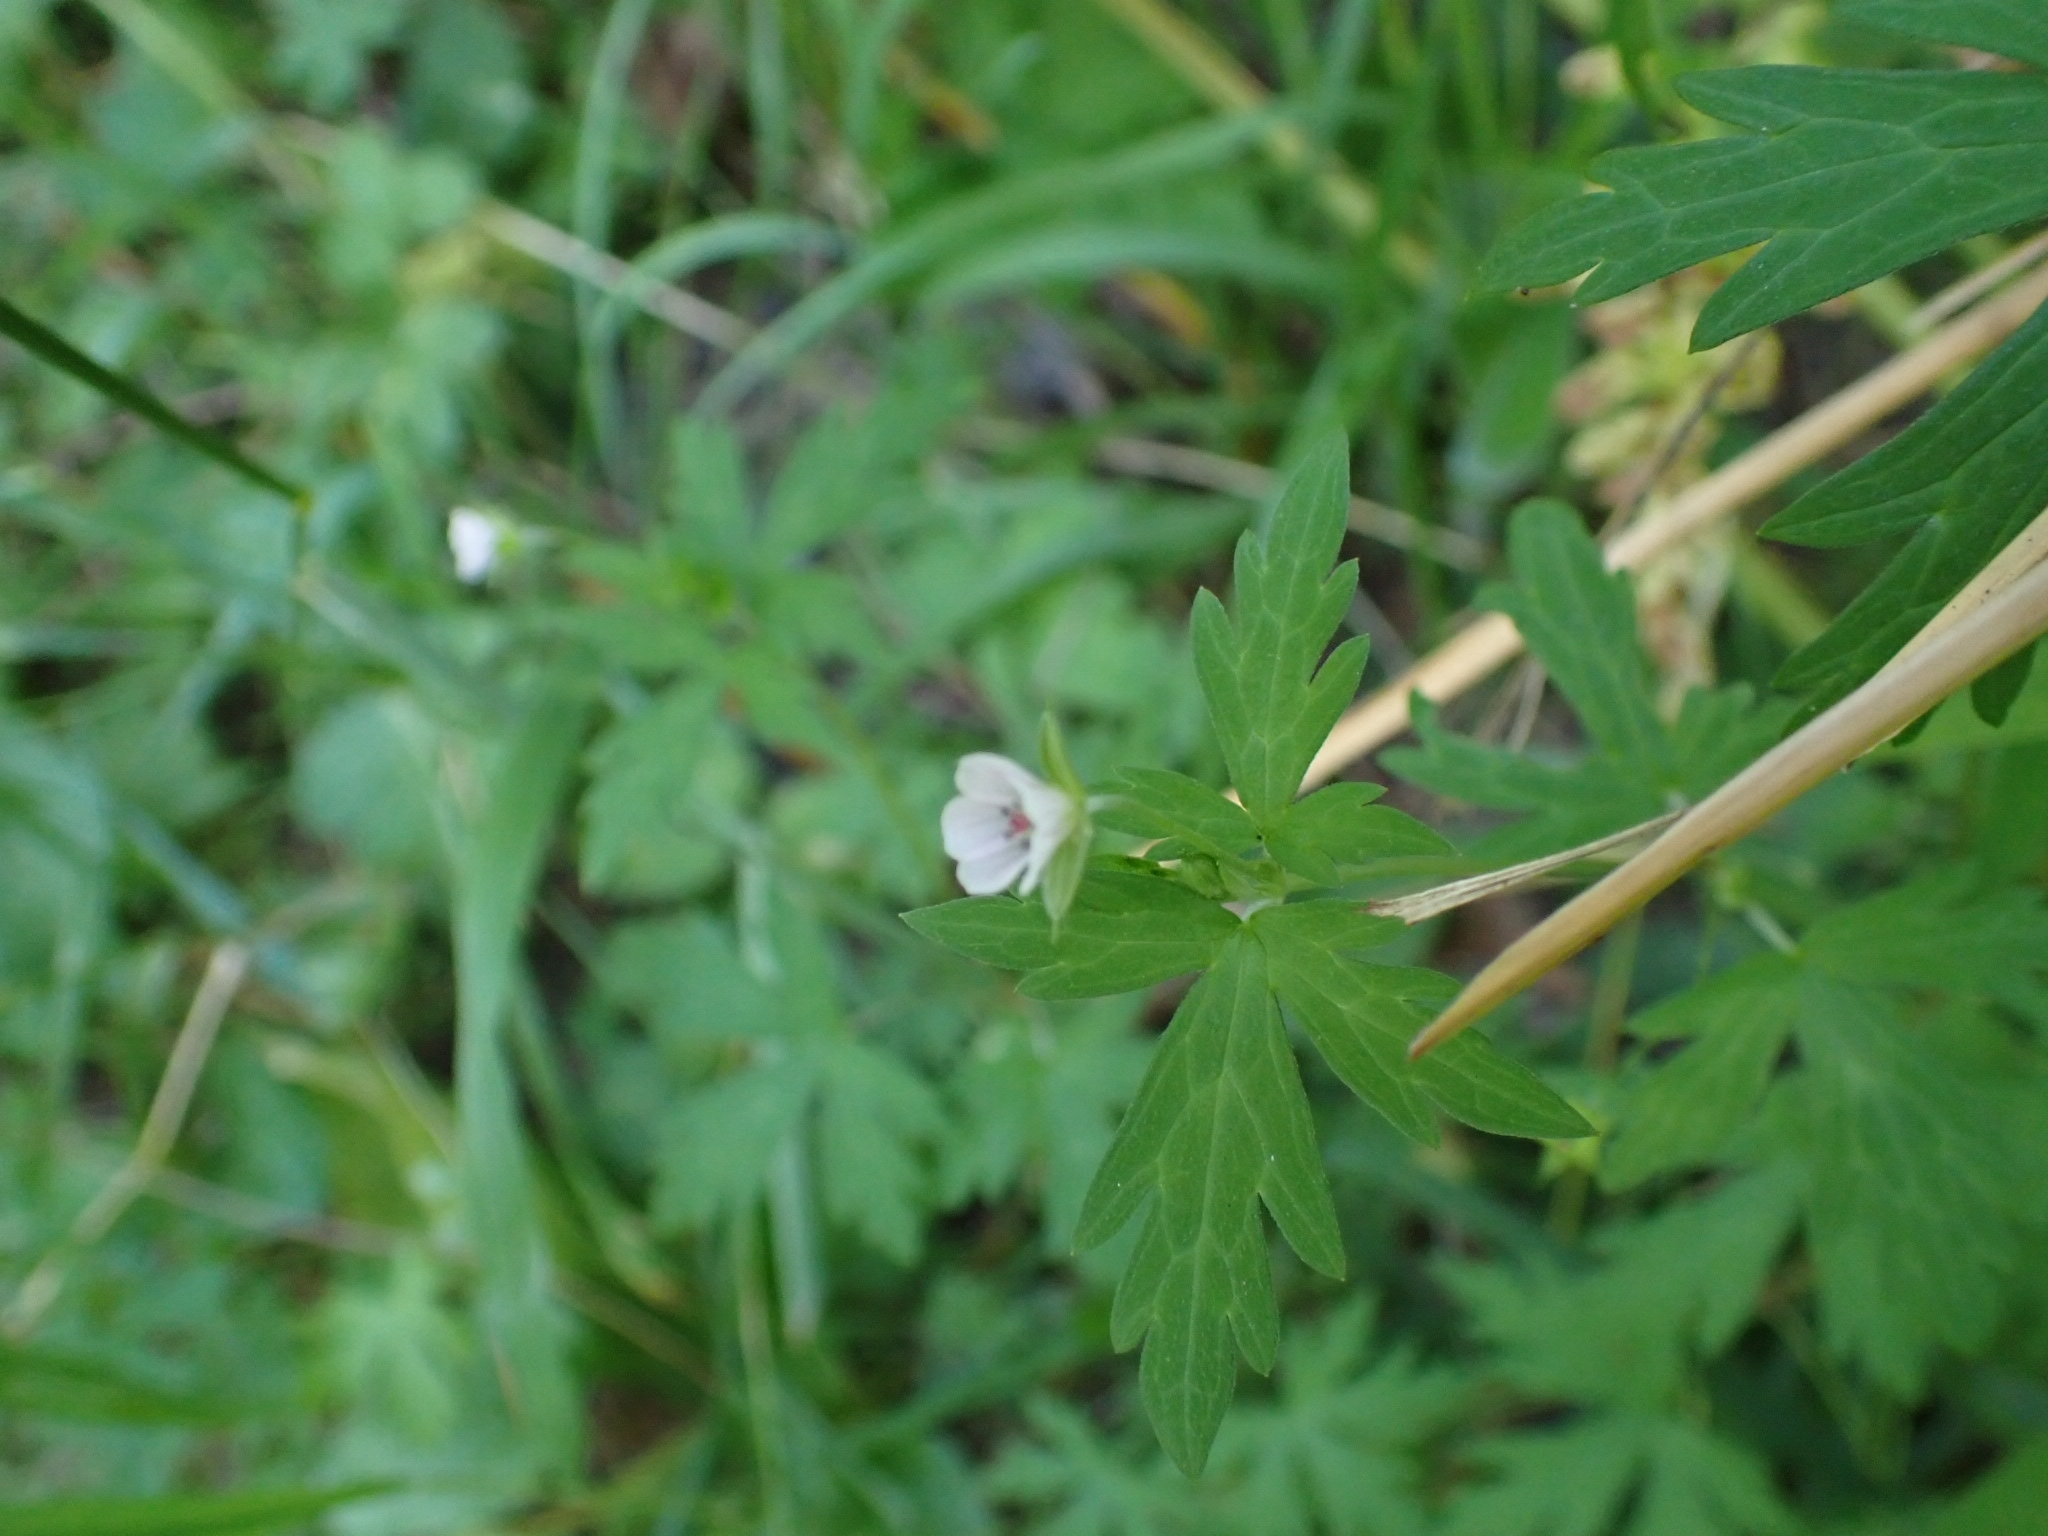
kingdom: Plantae
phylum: Tracheophyta
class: Magnoliopsida
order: Geraniales
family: Geraniaceae
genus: Geranium
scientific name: Geranium sibiricum
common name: Siberian crane's-bill
